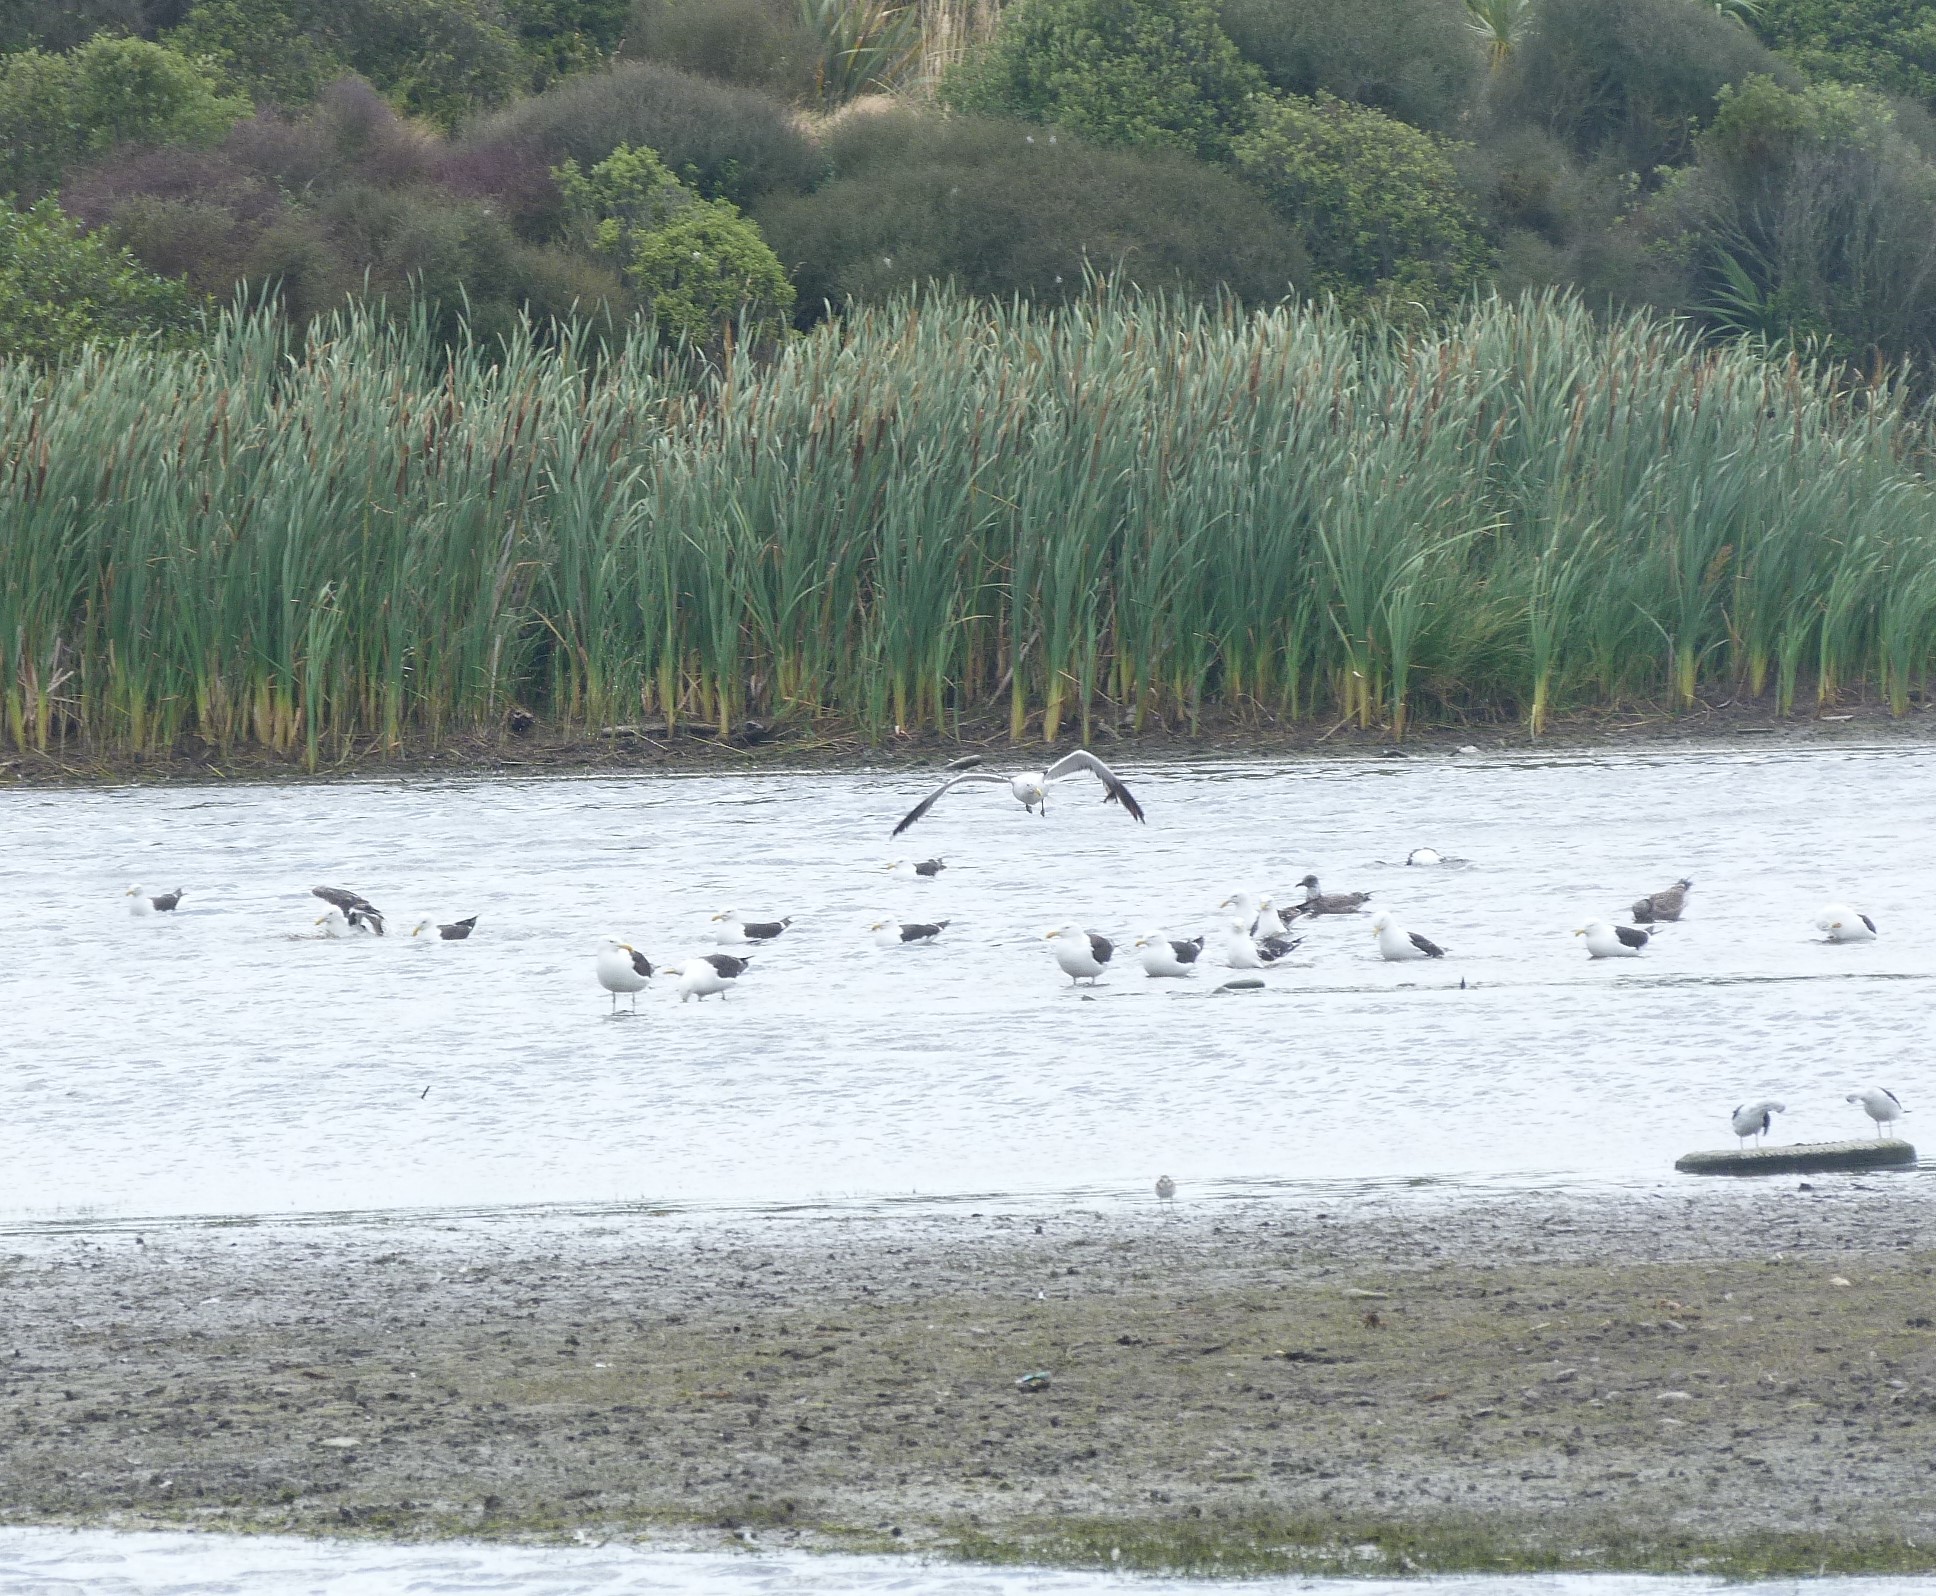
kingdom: Animalia
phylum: Chordata
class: Aves
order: Charadriiformes
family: Laridae
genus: Larus
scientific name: Larus dominicanus
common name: Kelp gull
